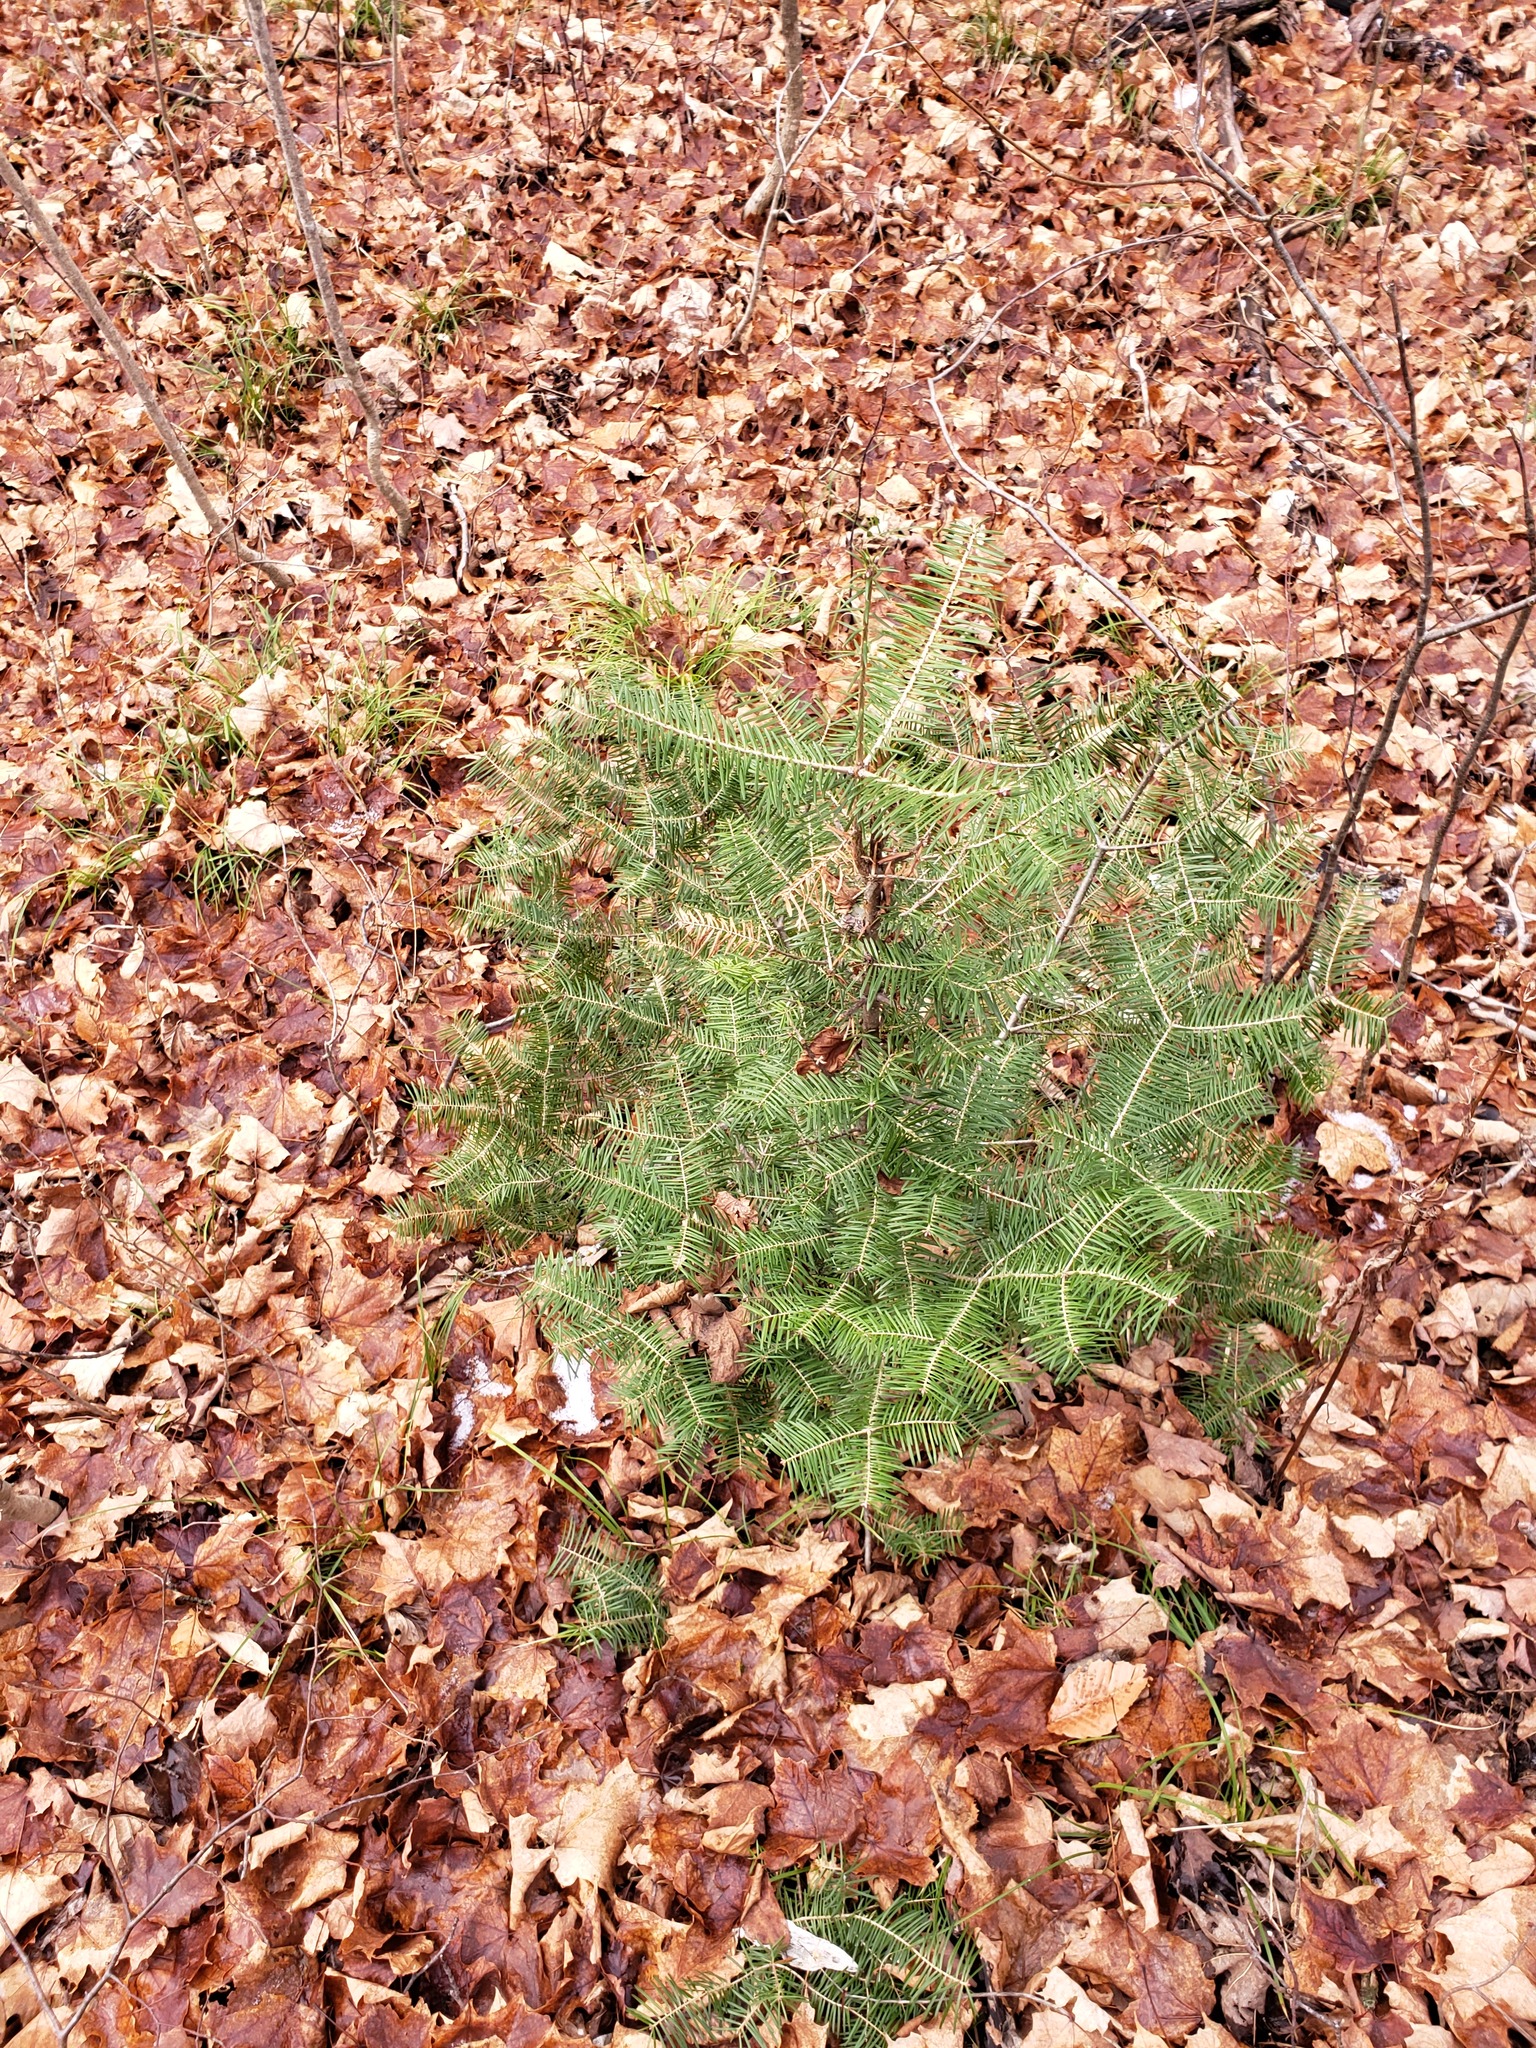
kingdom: Plantae
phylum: Tracheophyta
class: Pinopsida
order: Pinales
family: Pinaceae
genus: Abies
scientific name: Abies balsamea
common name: Balsam fir
